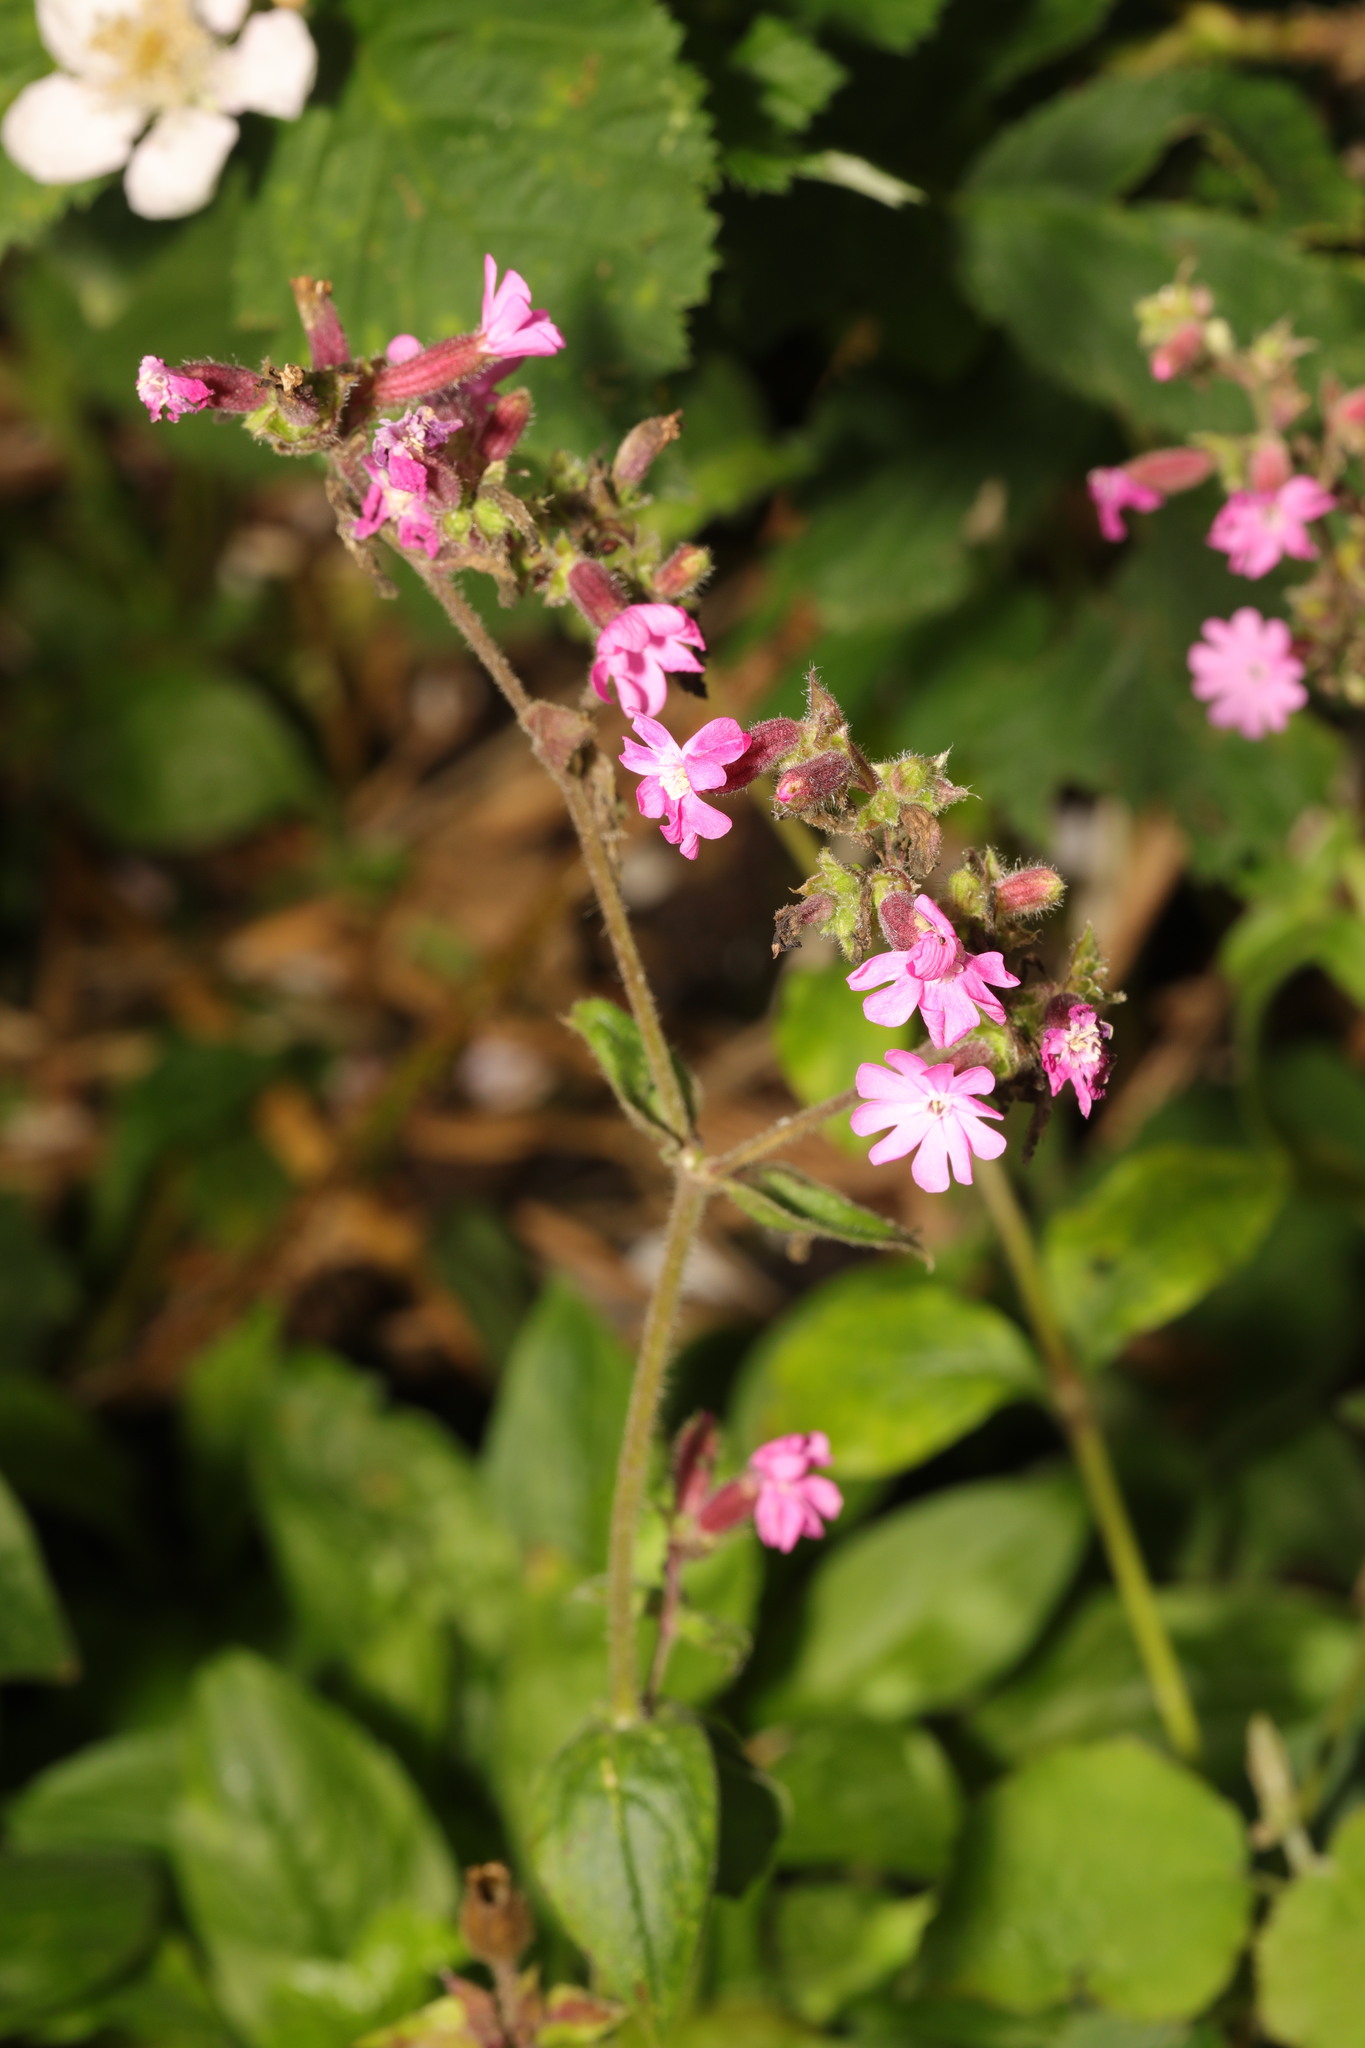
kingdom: Plantae
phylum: Tracheophyta
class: Magnoliopsida
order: Caryophyllales
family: Caryophyllaceae
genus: Silene
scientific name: Silene dioica
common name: Red campion
